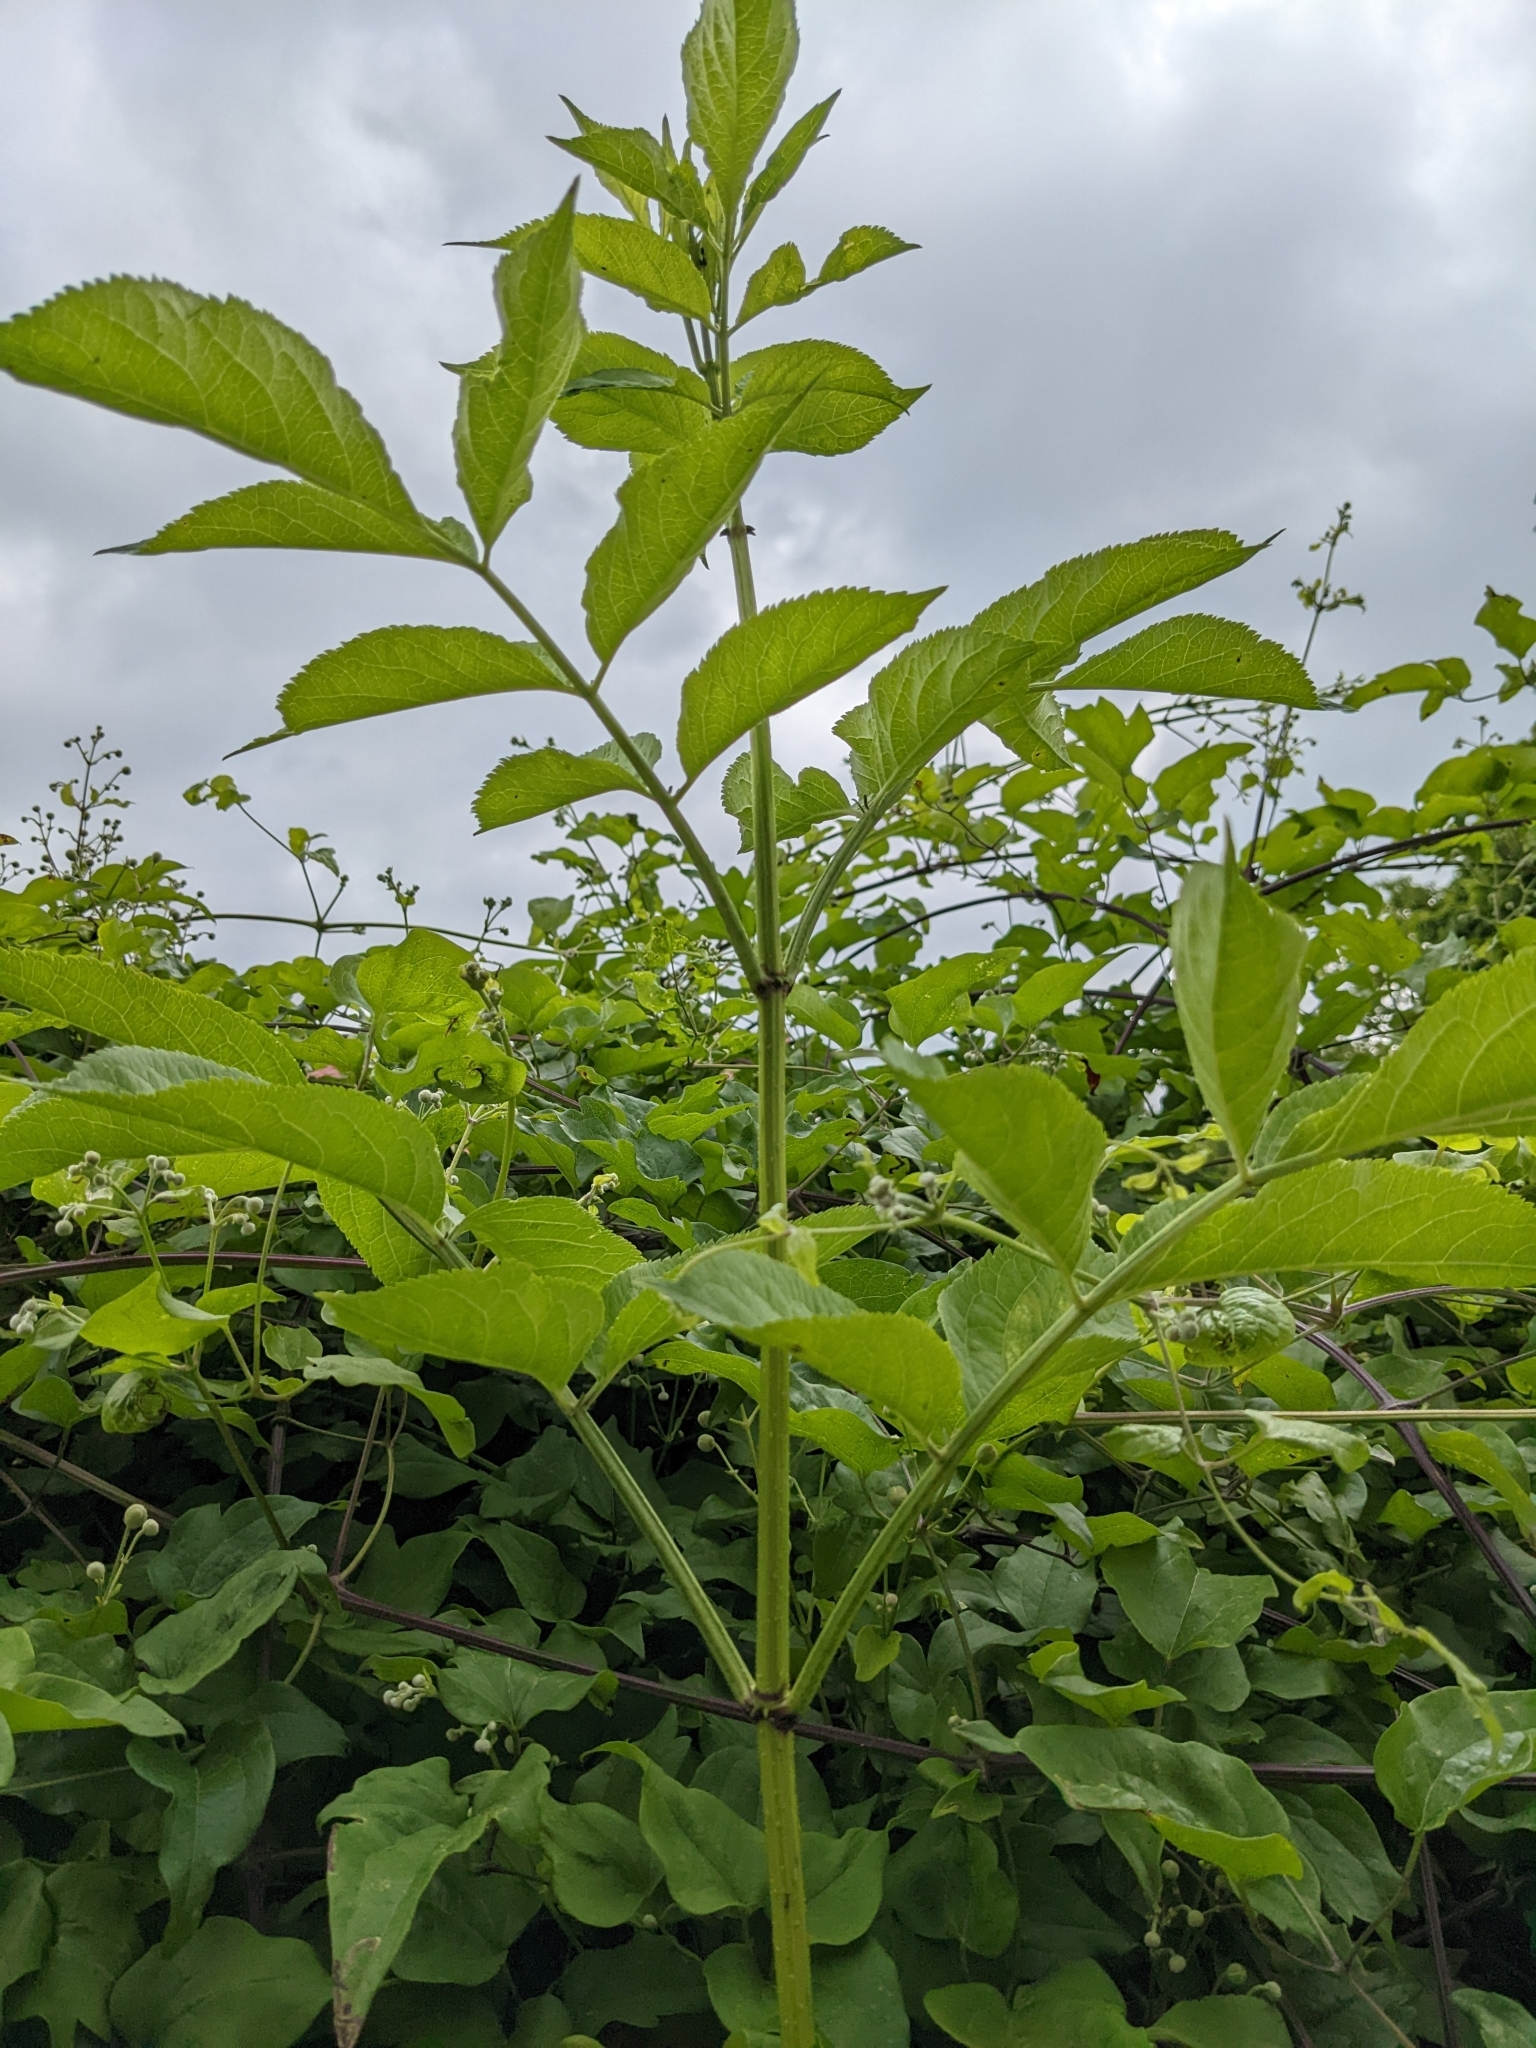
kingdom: Plantae
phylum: Tracheophyta
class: Magnoliopsida
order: Dipsacales
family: Viburnaceae
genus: Sambucus
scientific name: Sambucus nigra
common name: Elder
